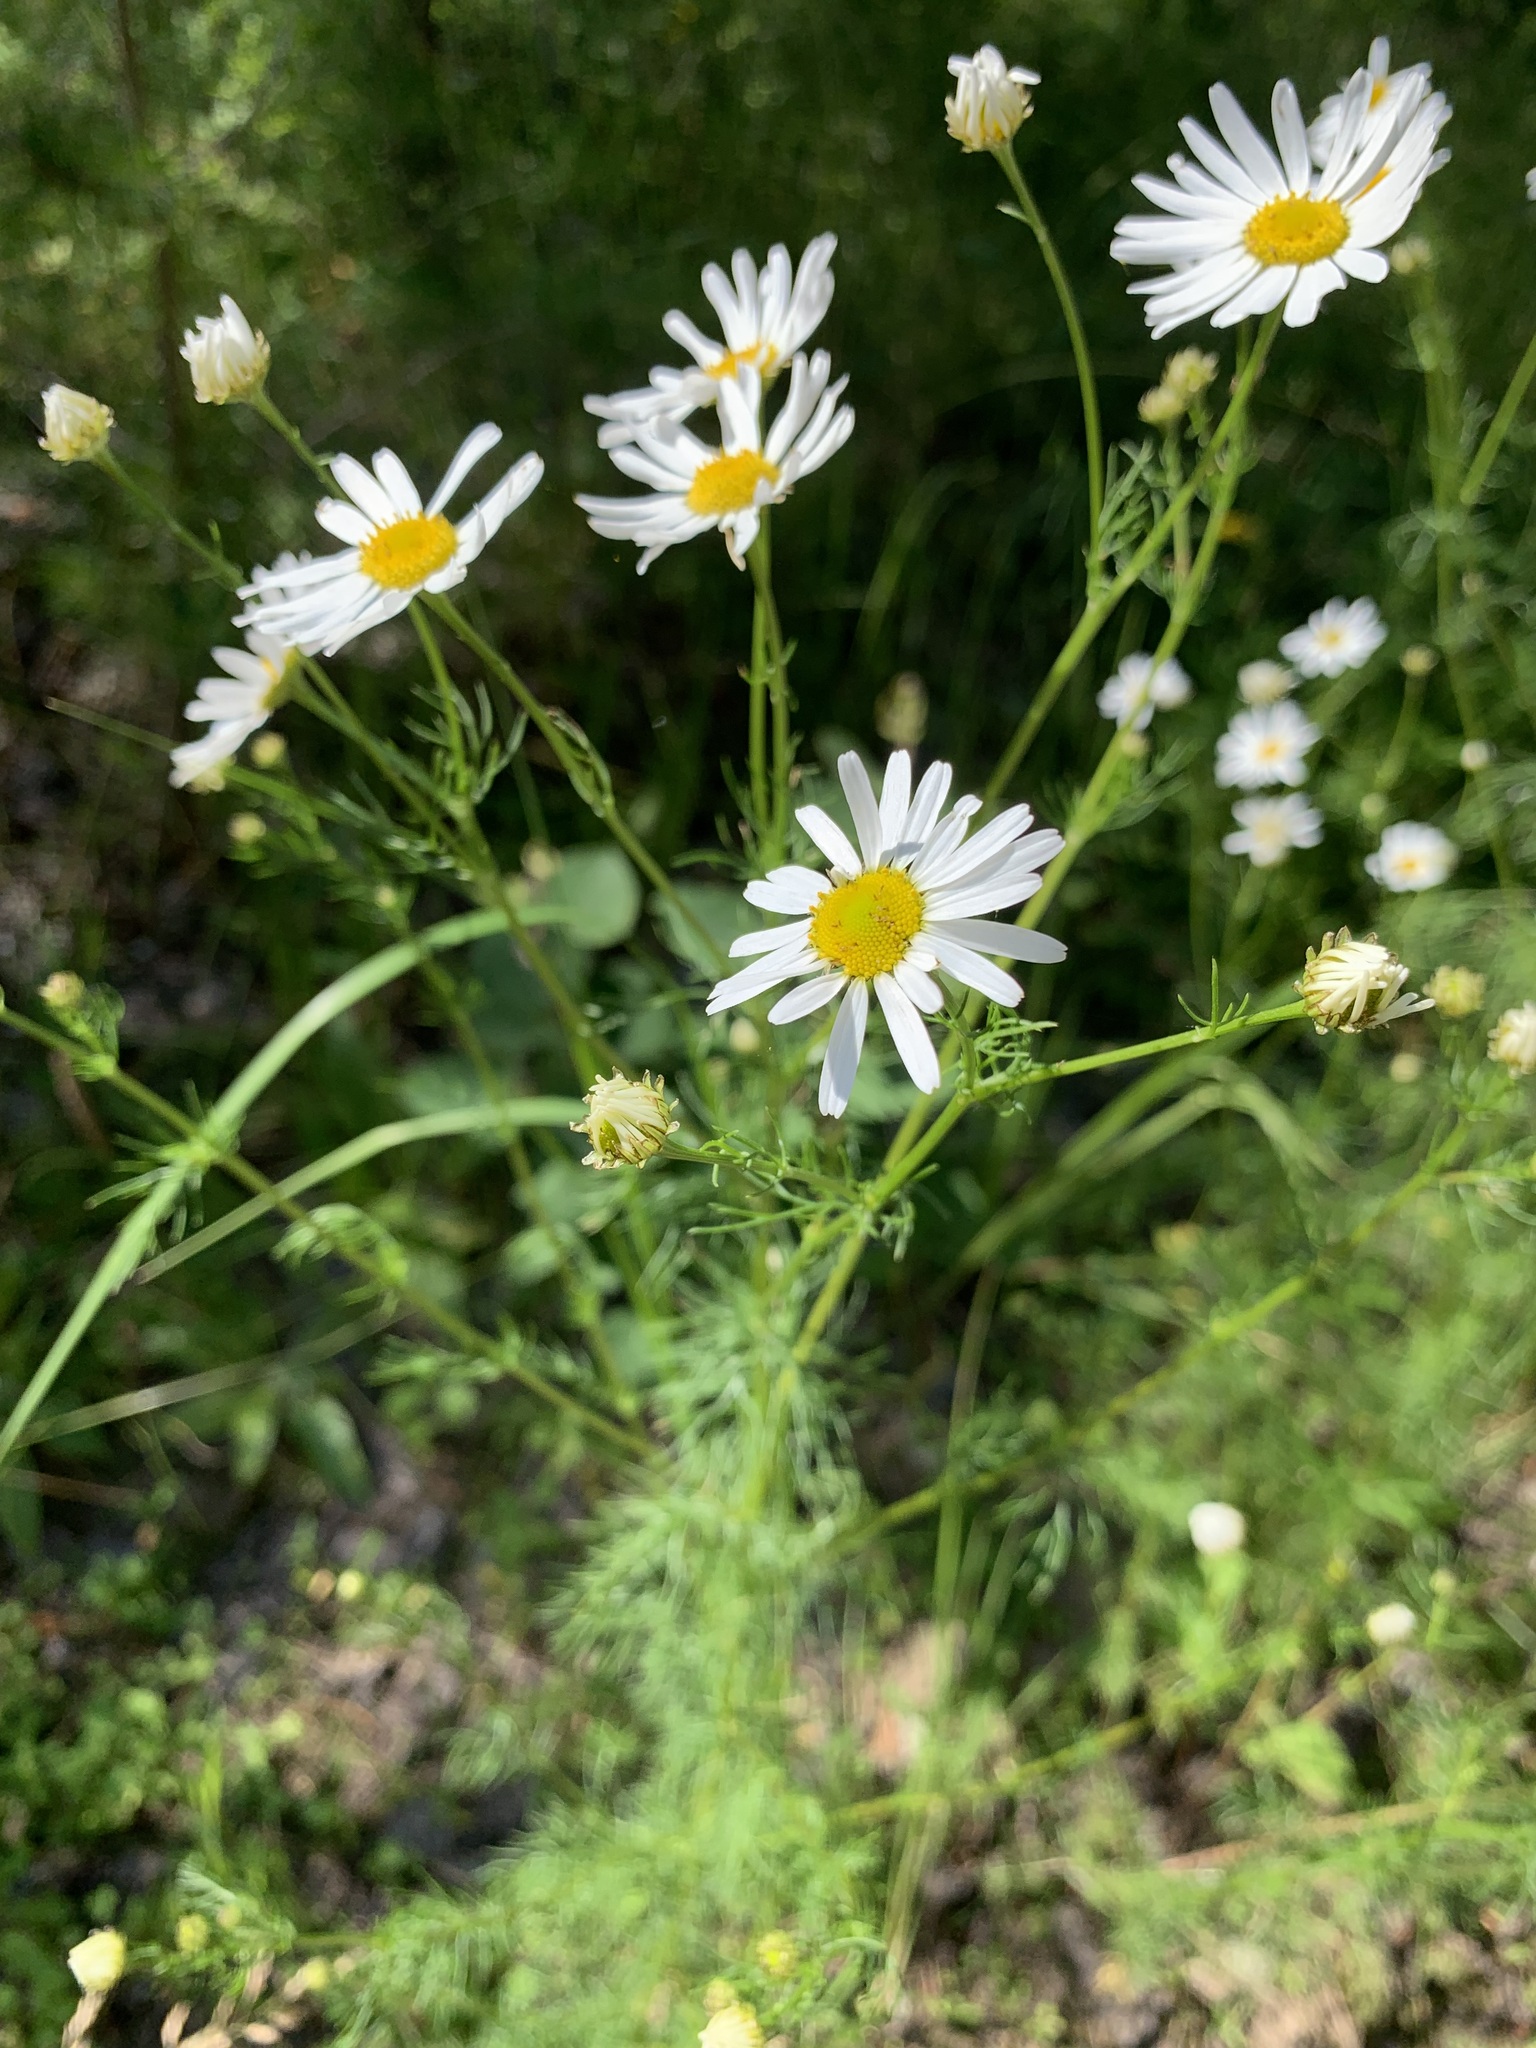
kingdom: Plantae
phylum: Tracheophyta
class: Magnoliopsida
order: Asterales
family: Asteraceae
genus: Tripleurospermum
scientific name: Tripleurospermum inodorum
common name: Scentless mayweed
